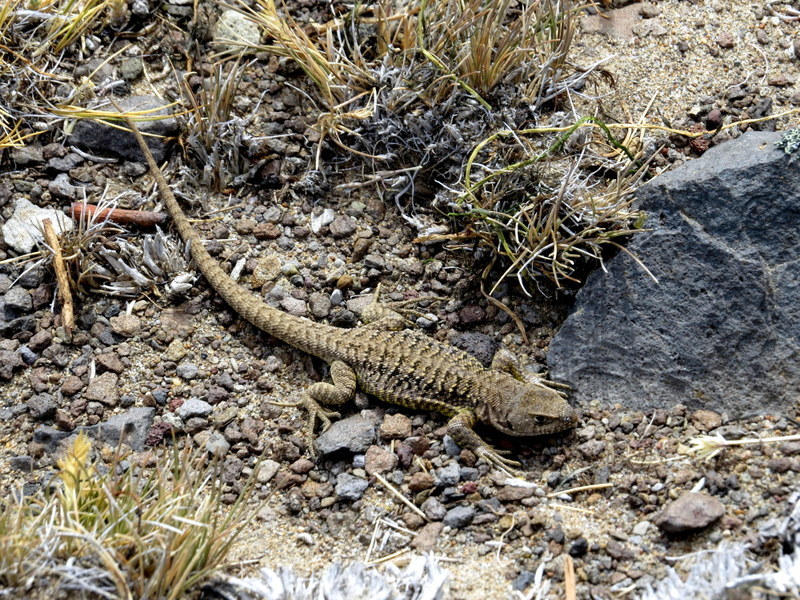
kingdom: Animalia
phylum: Chordata
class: Squamata
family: Liolaemidae
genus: Liolaemus
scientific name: Liolaemus kingii
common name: King's tree iguana
